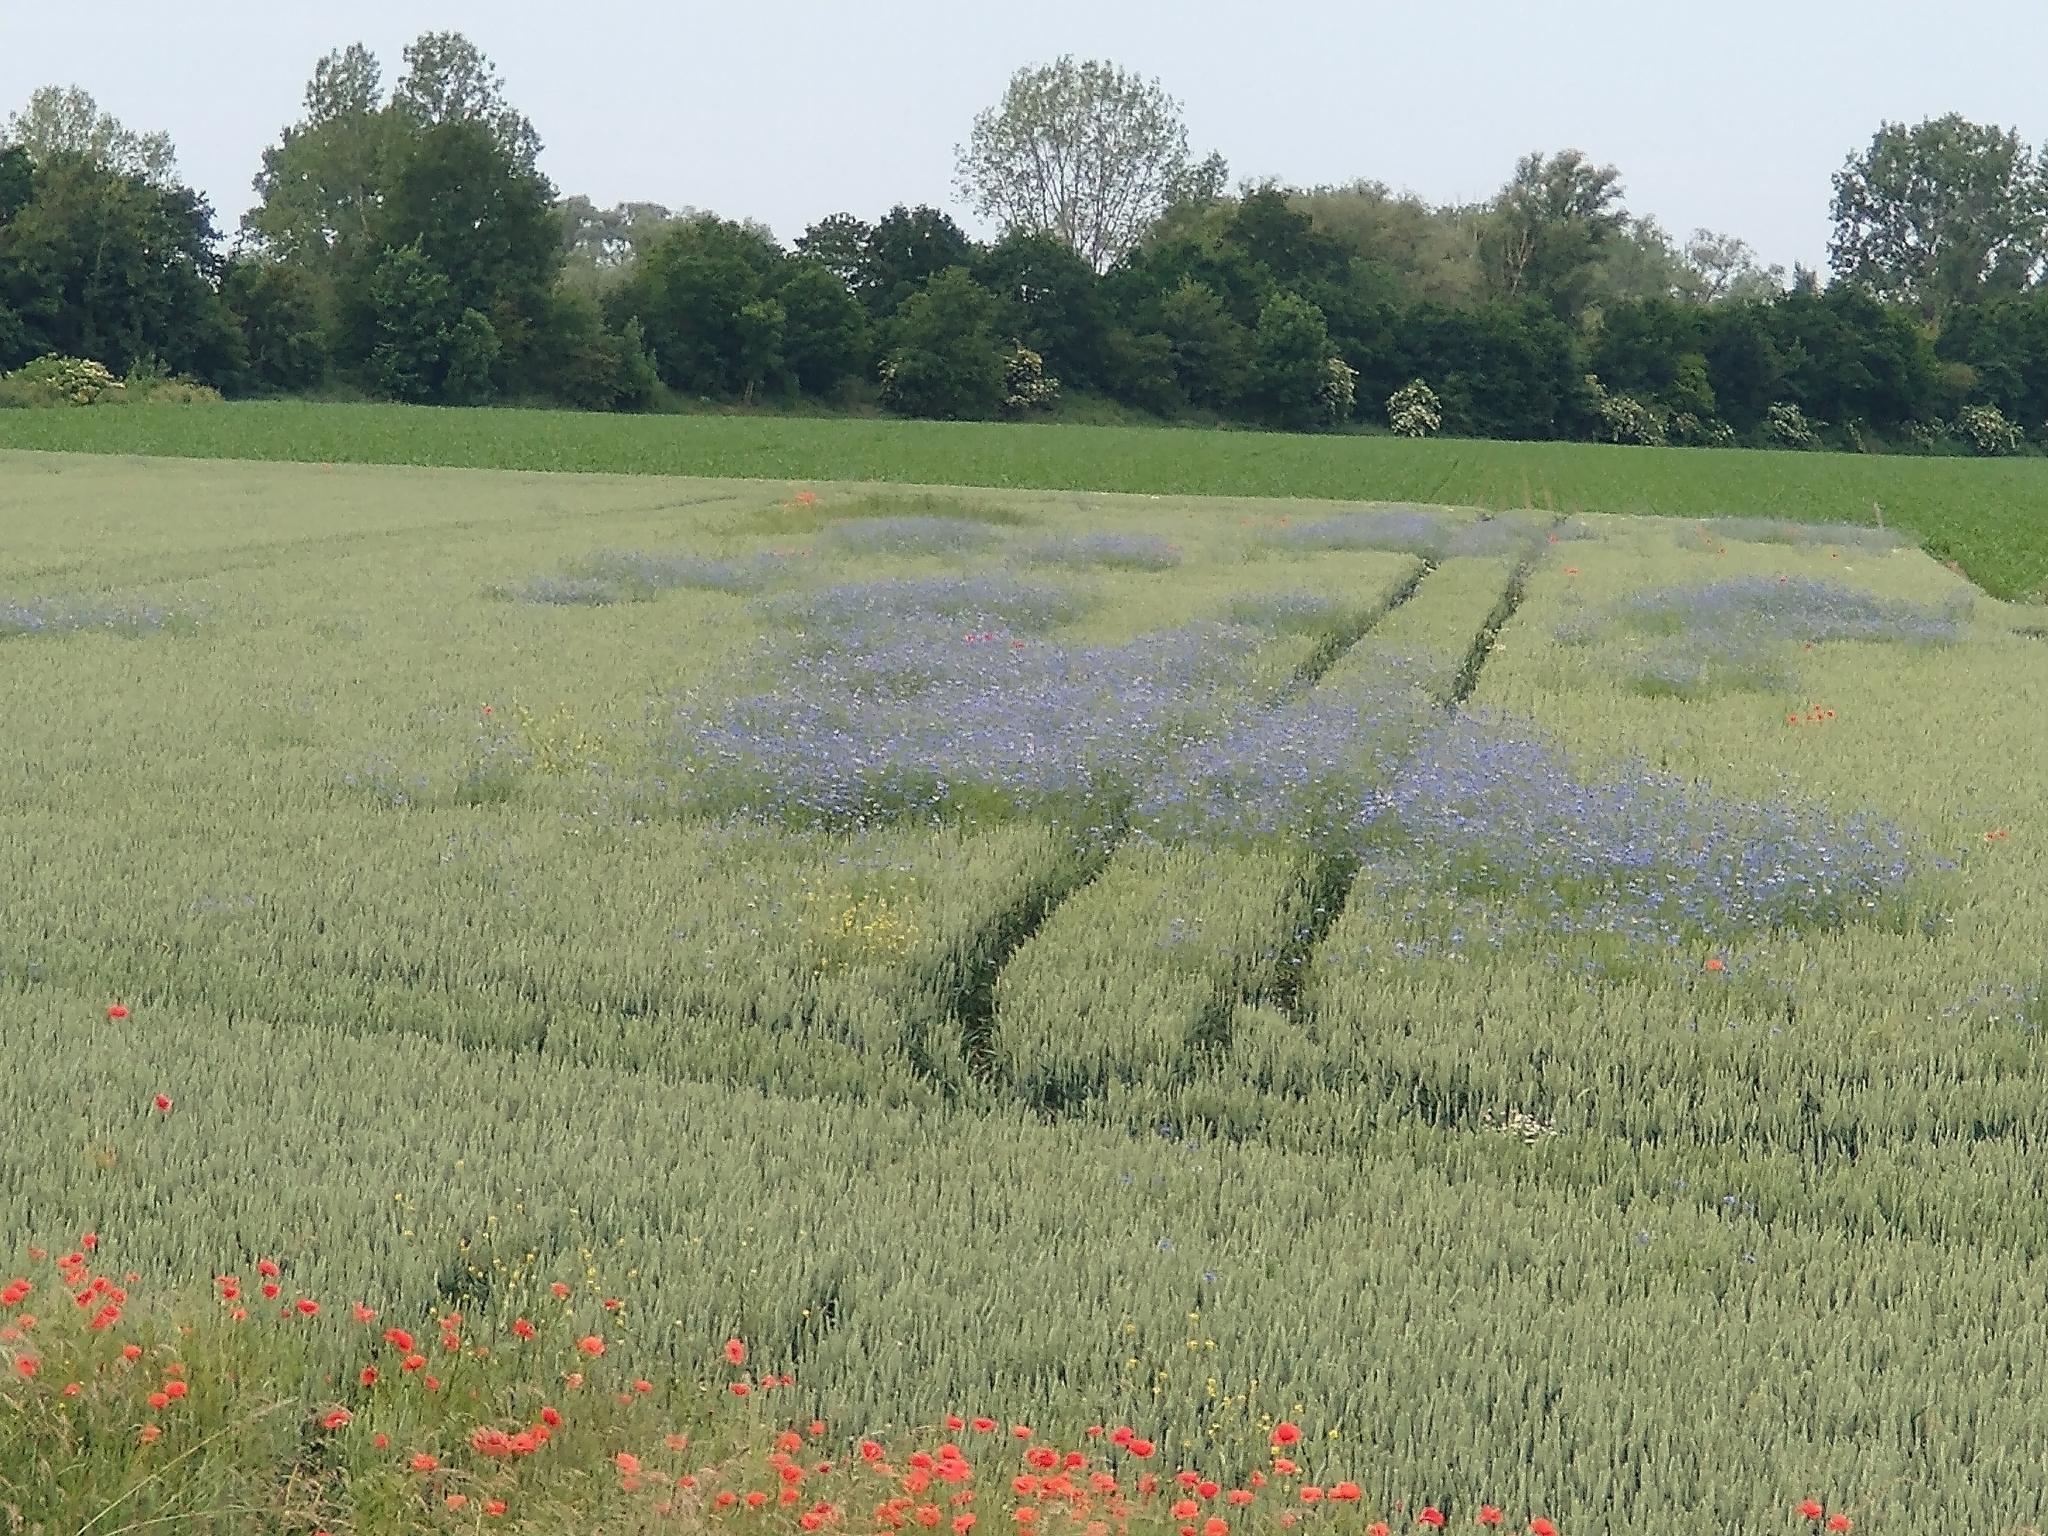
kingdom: Plantae
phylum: Tracheophyta
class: Magnoliopsida
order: Asterales
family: Asteraceae
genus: Centaurea
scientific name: Centaurea cyanus
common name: Cornflower
